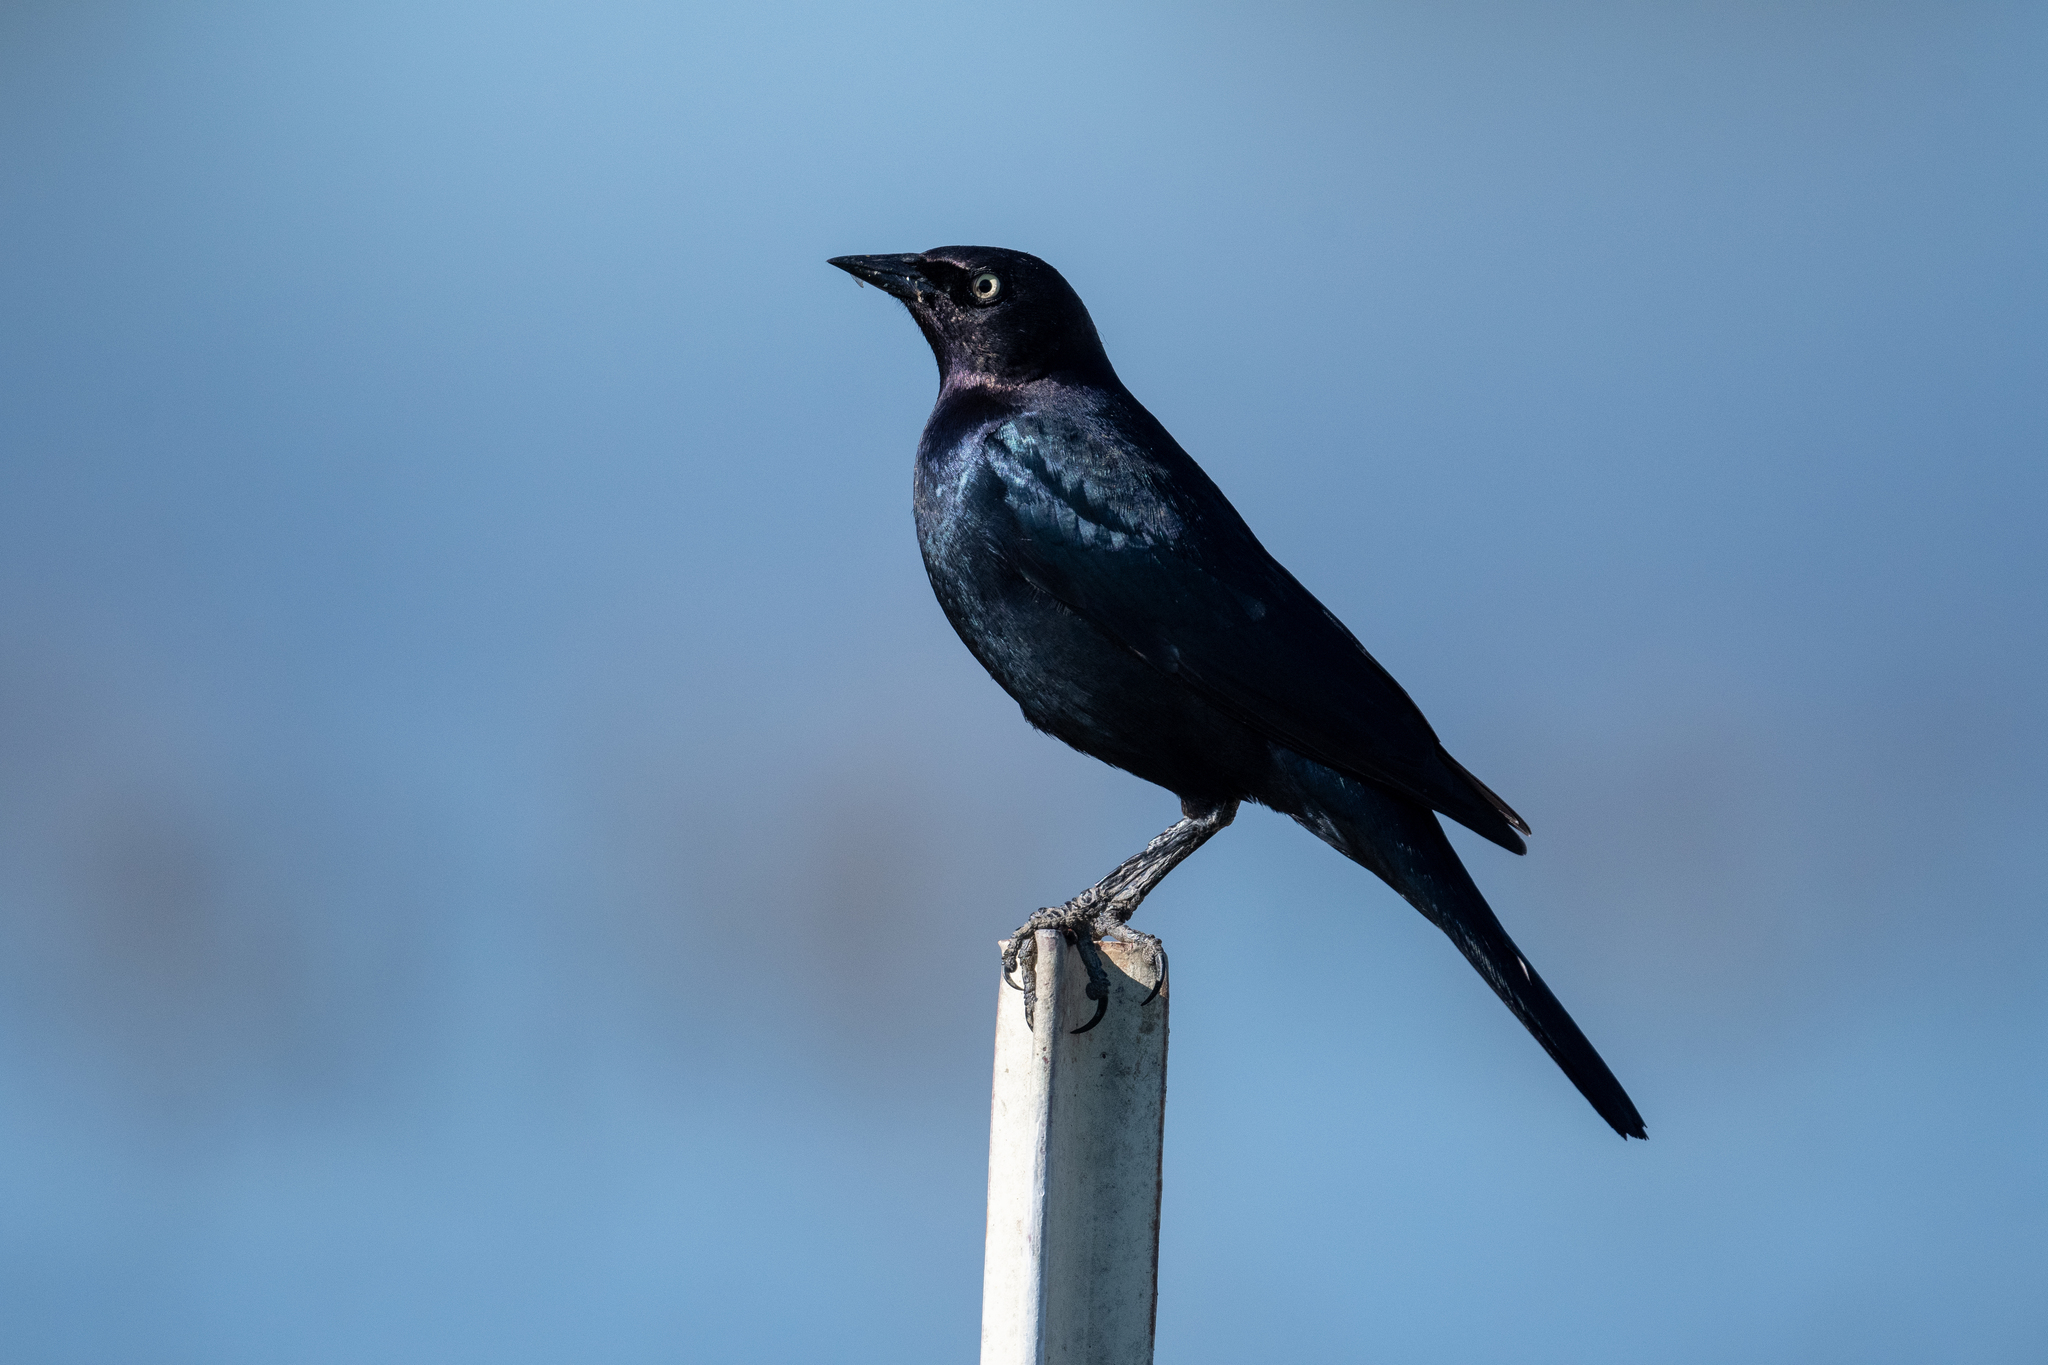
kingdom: Animalia
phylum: Chordata
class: Aves
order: Passeriformes
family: Icteridae
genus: Euphagus
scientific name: Euphagus cyanocephalus
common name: Brewer's blackbird
